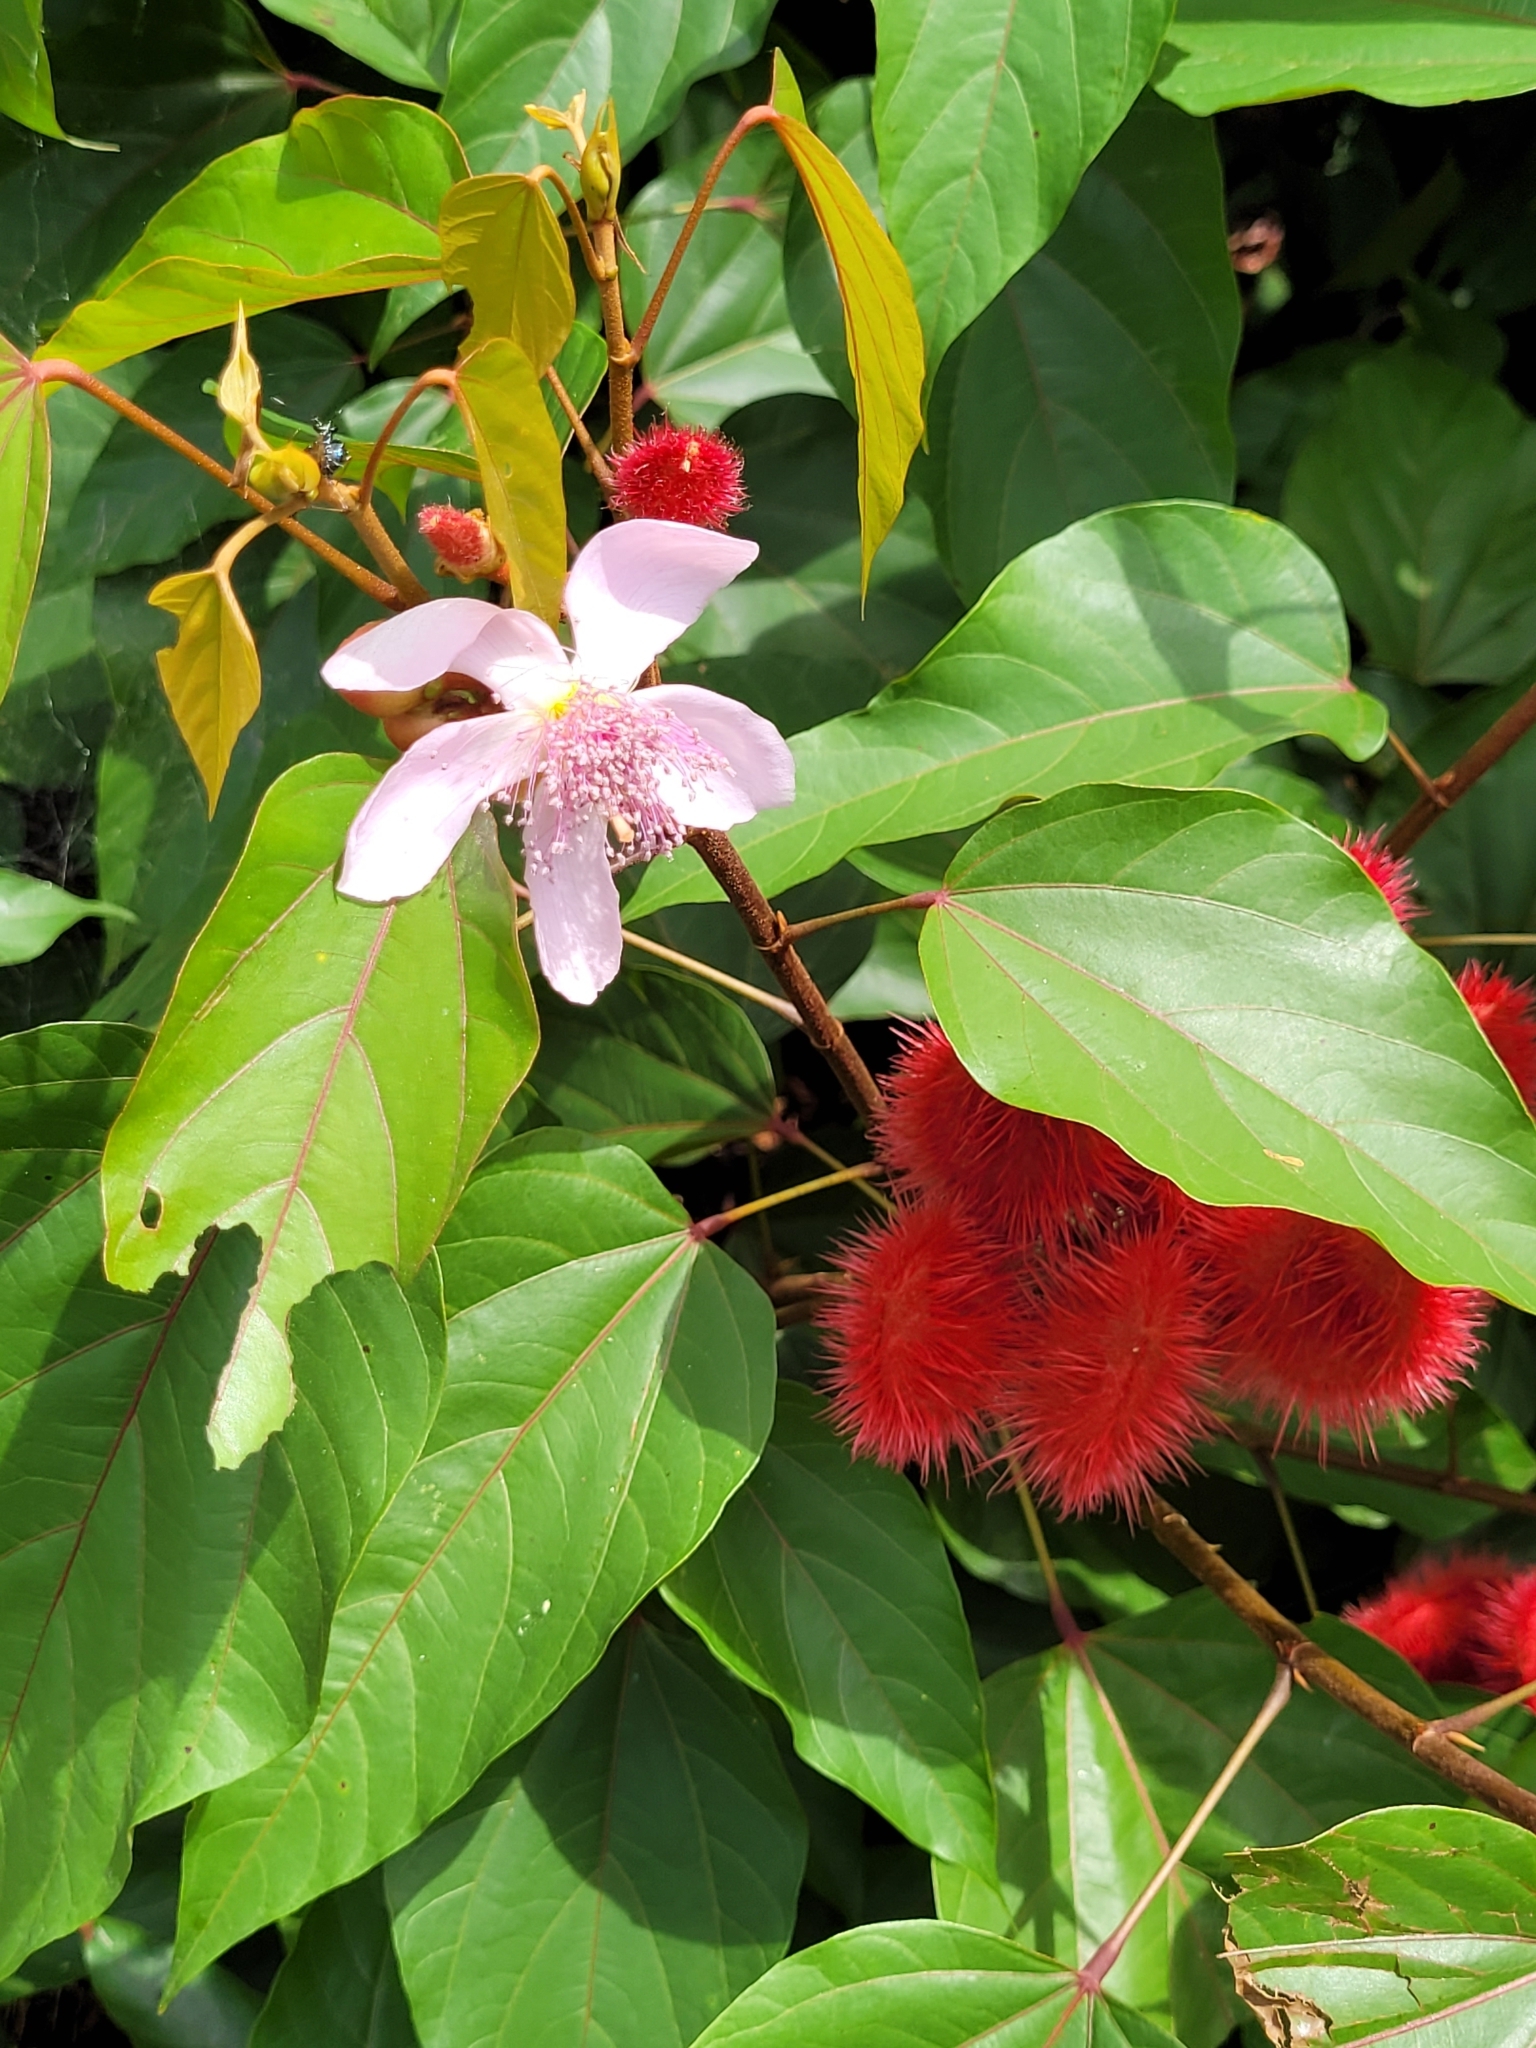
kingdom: Plantae
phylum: Tracheophyta
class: Magnoliopsida
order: Malvales
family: Bixaceae
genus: Bixa
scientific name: Bixa orellana
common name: Lipsticktree
